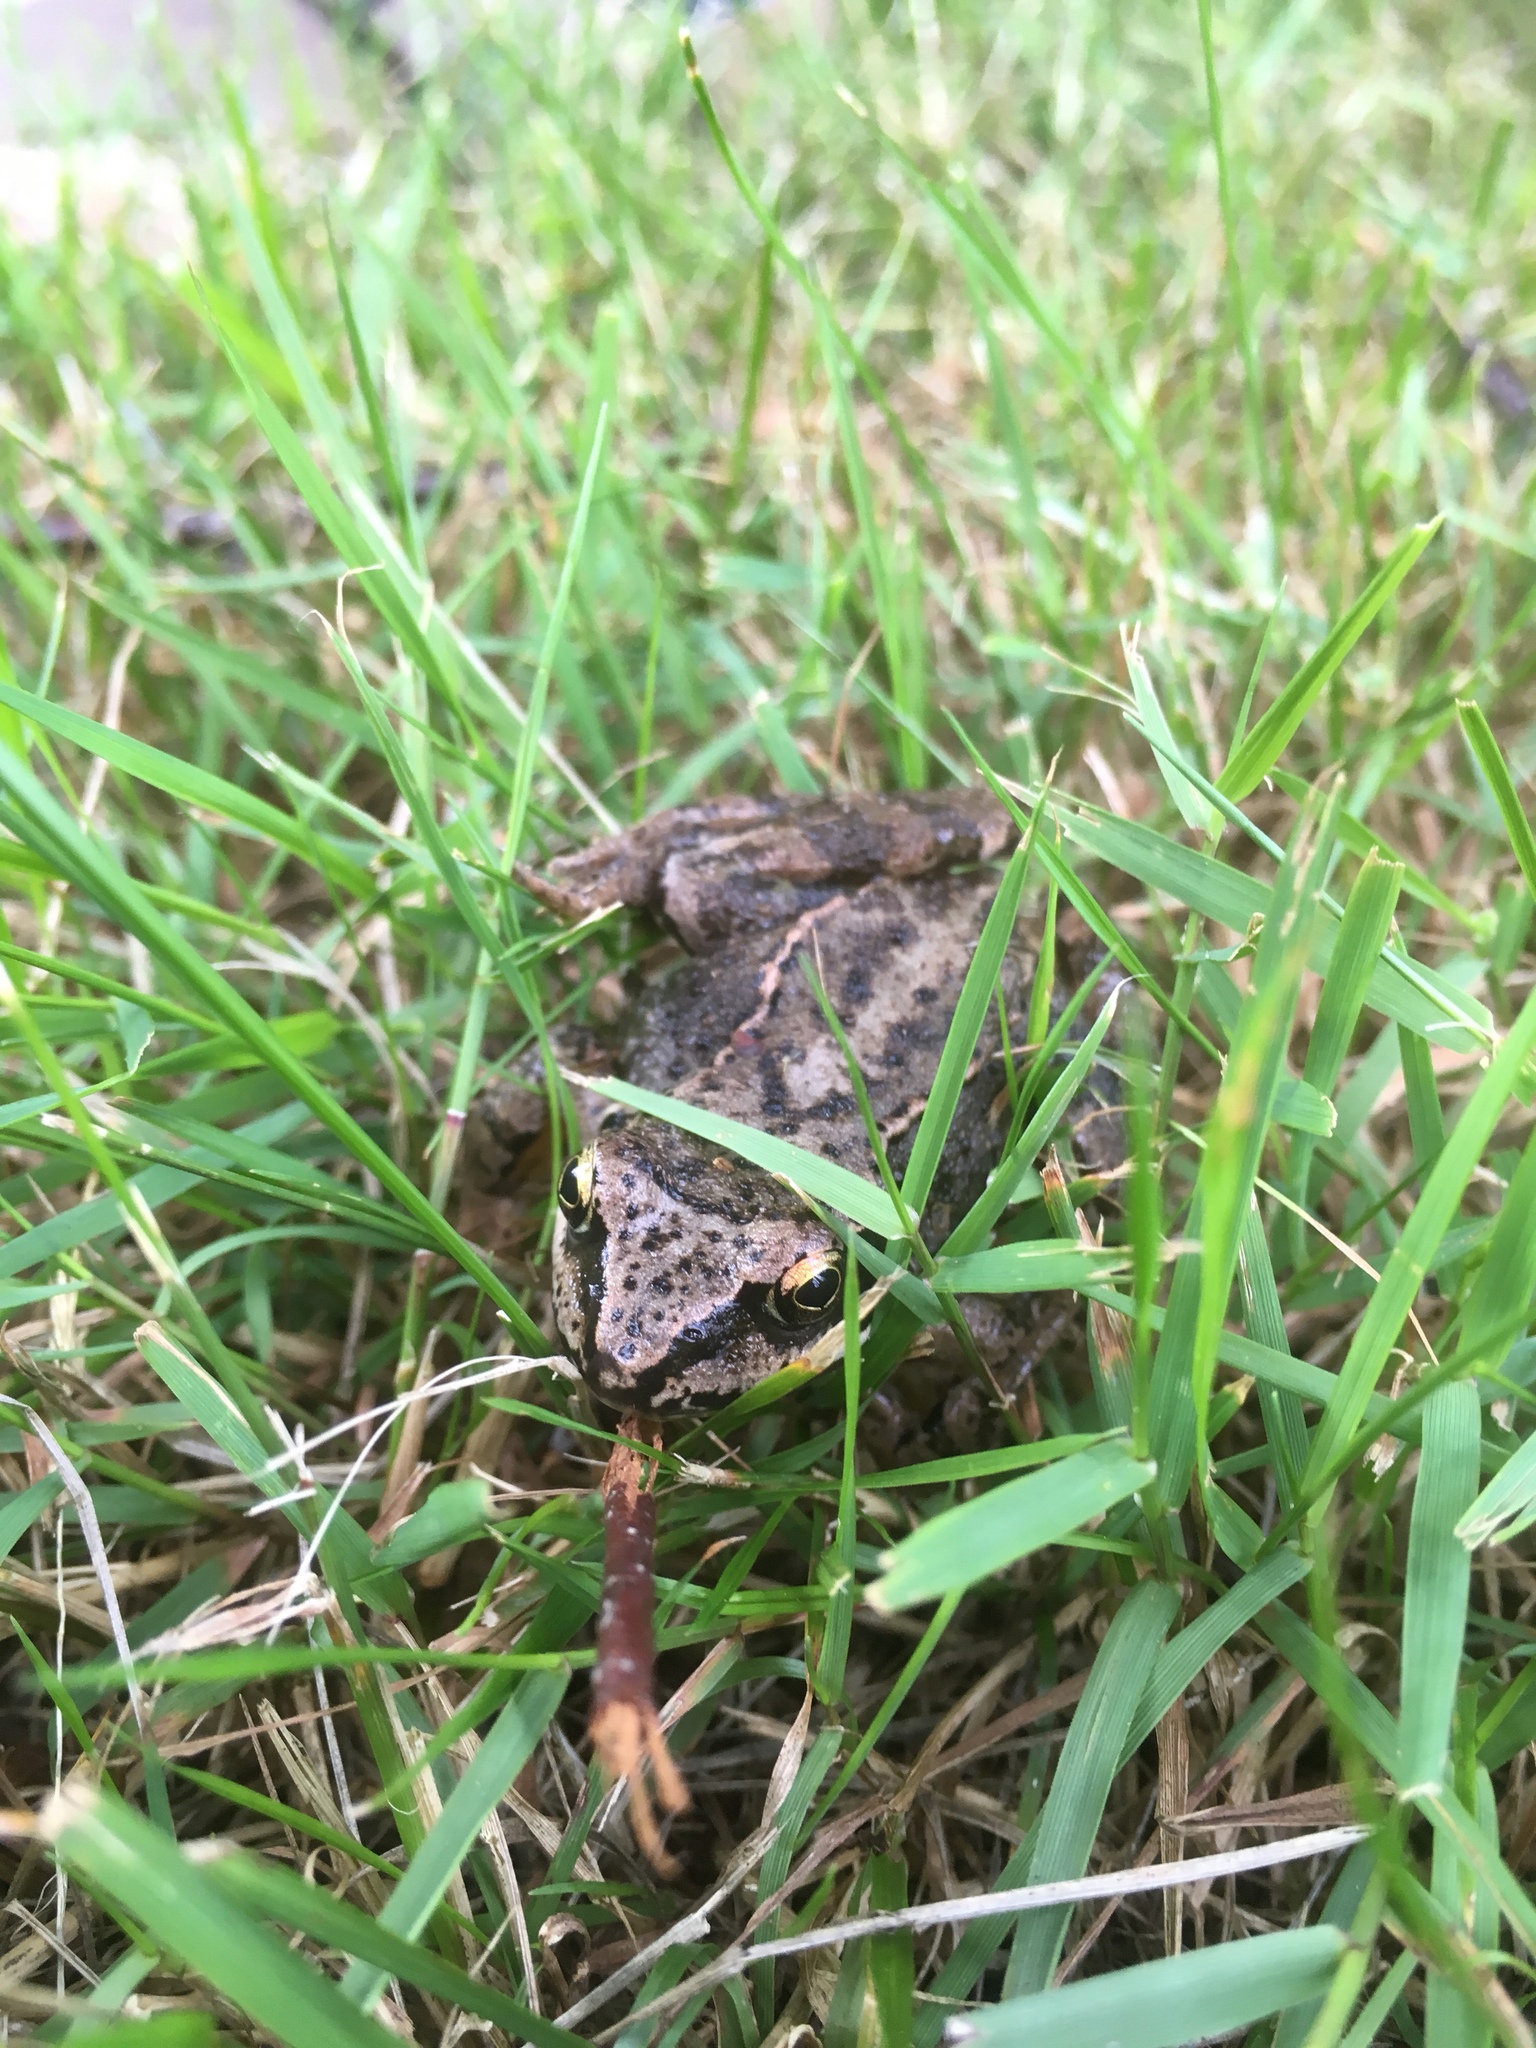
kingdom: Animalia
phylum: Chordata
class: Amphibia
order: Anura
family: Ranidae
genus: Rana
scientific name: Rana temporaria
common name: Common frog
